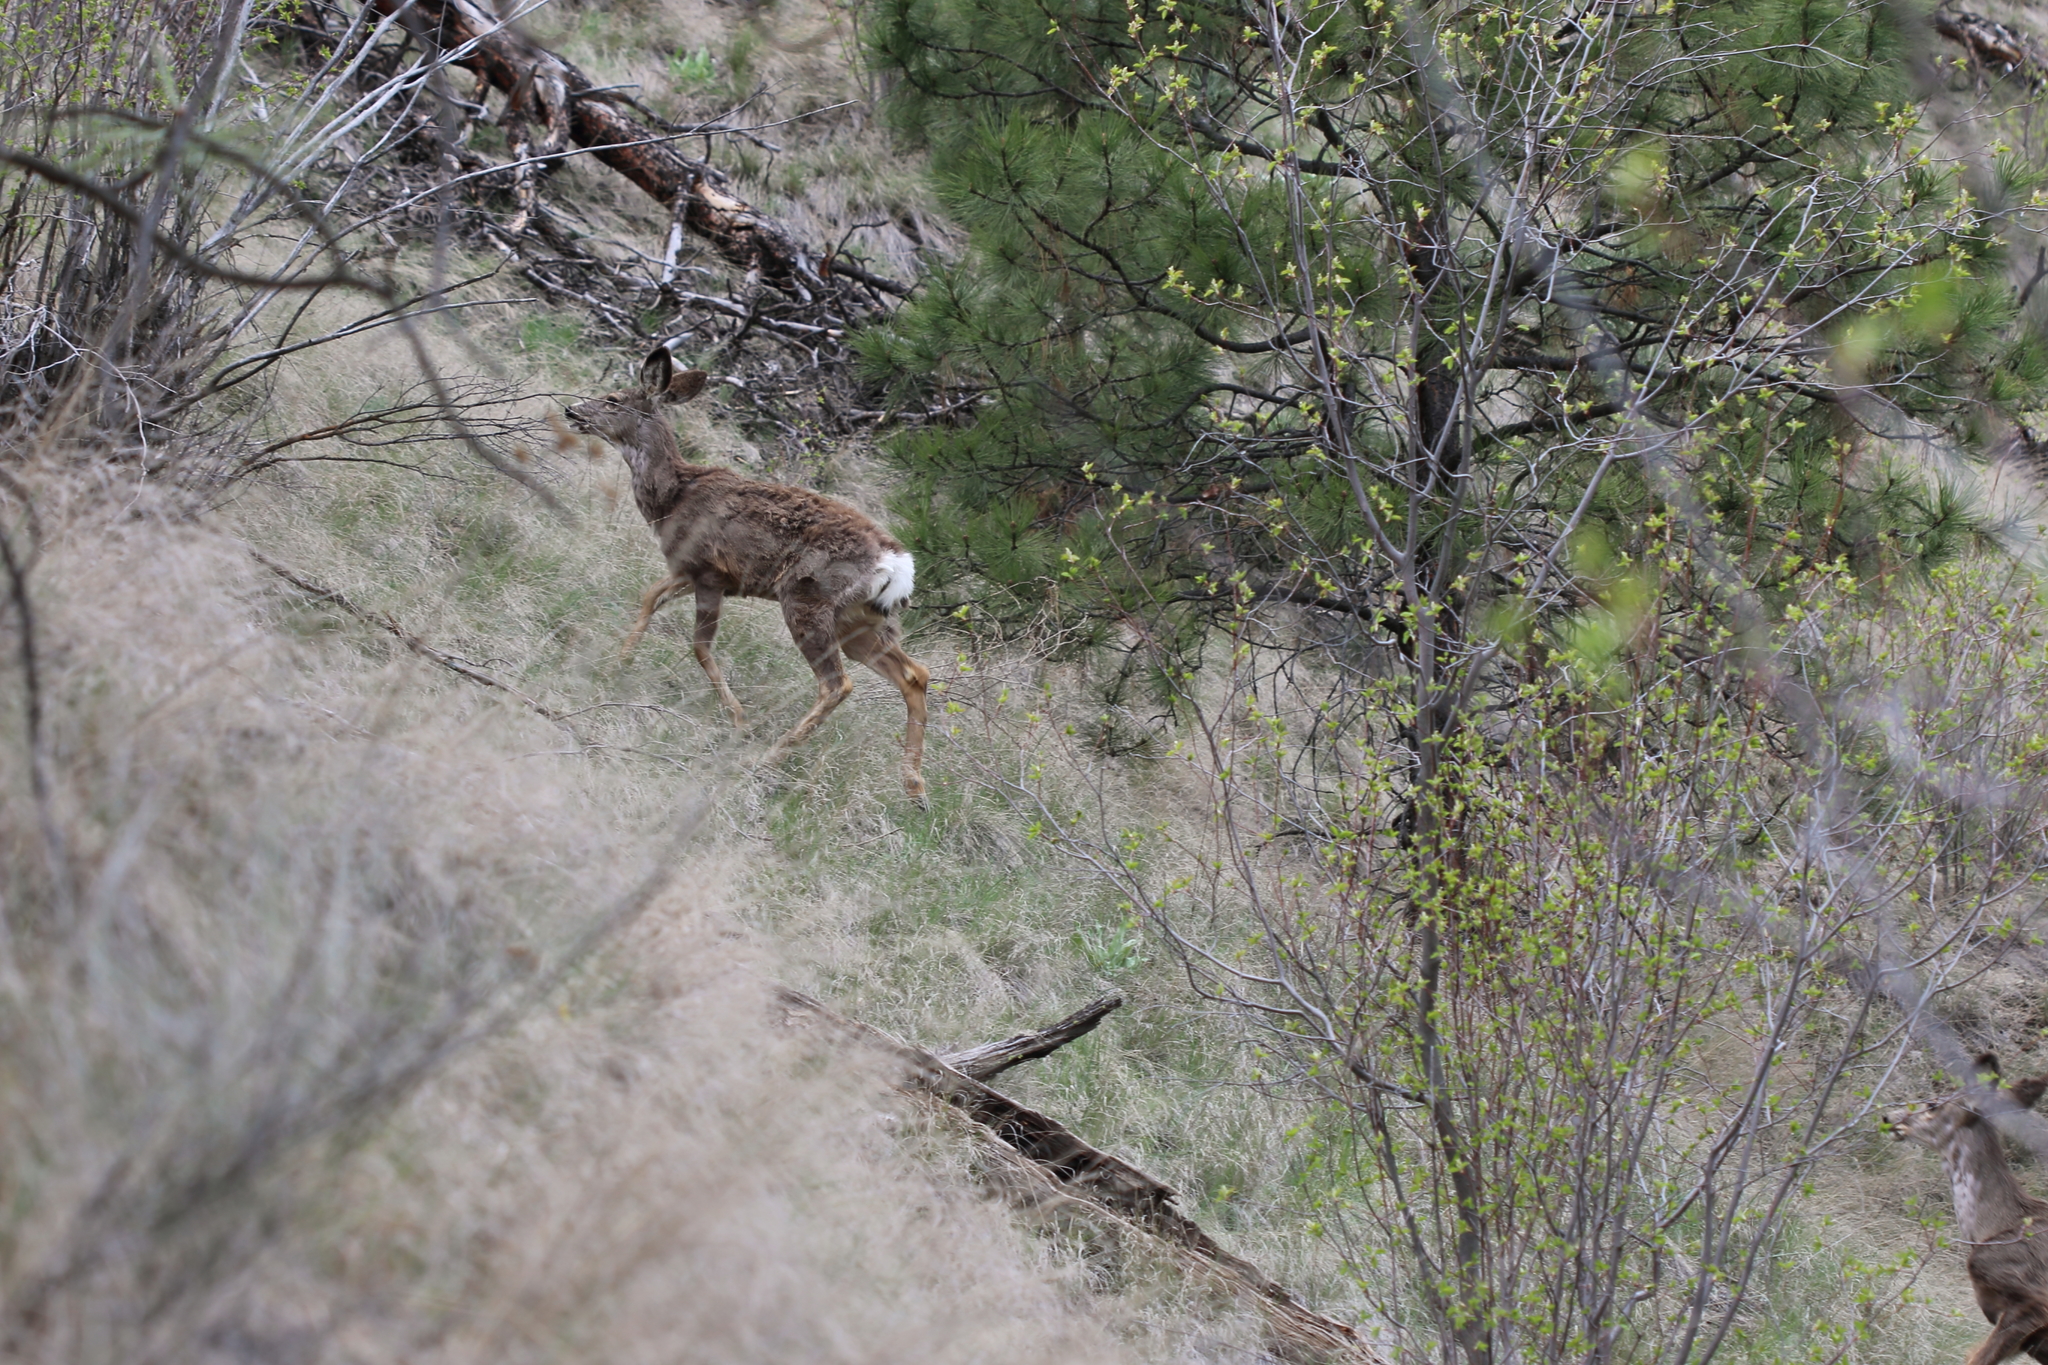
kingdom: Animalia
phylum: Chordata
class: Mammalia
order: Artiodactyla
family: Cervidae
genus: Odocoileus
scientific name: Odocoileus hemionus
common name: Mule deer
